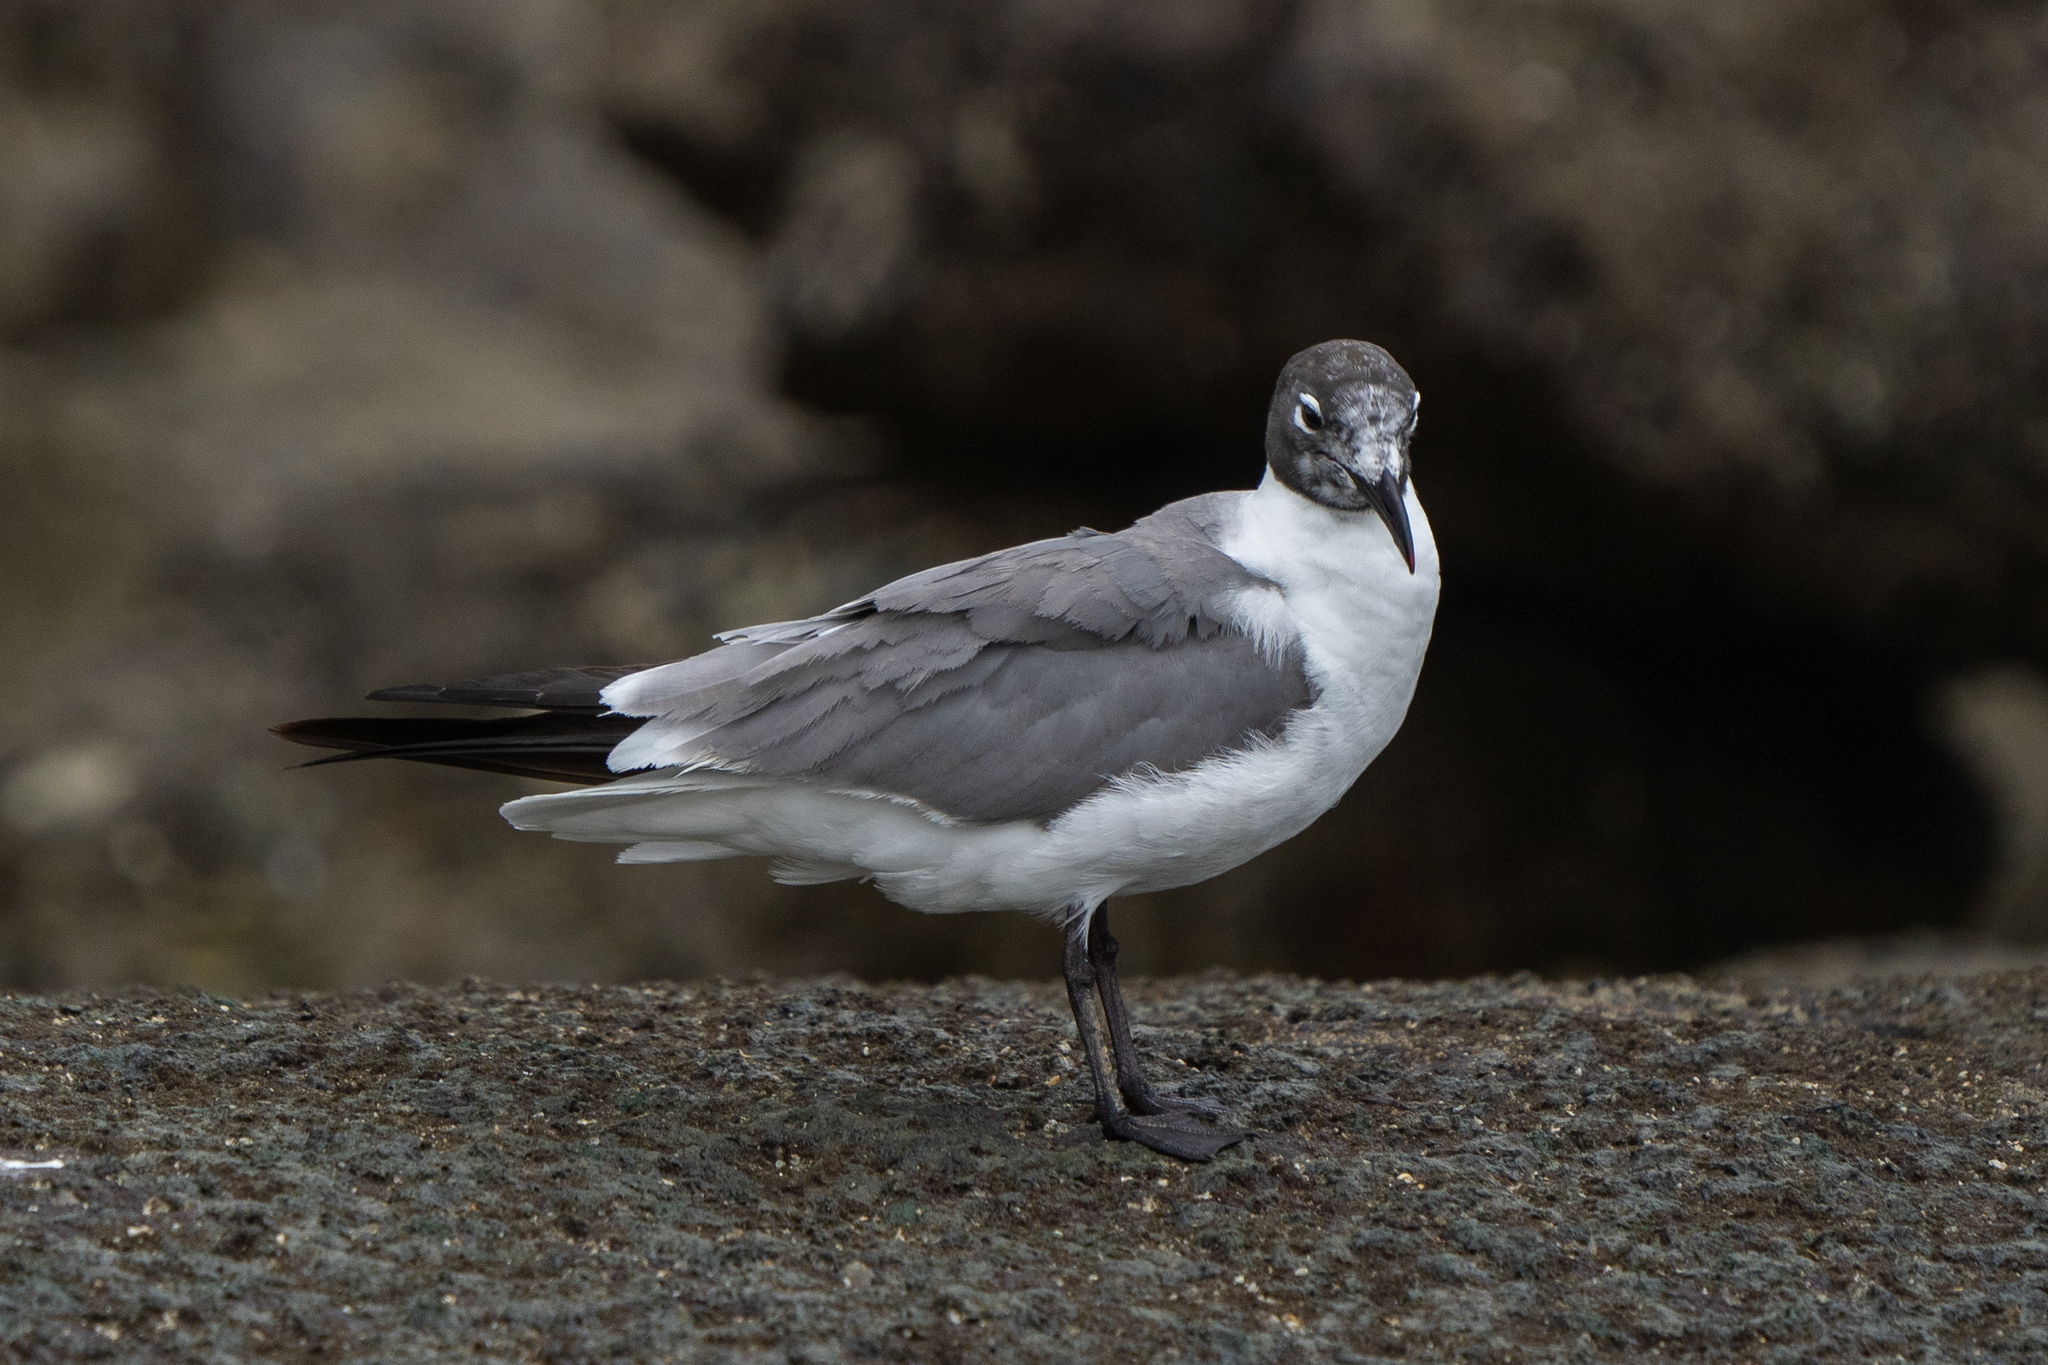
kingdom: Animalia
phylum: Chordata
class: Aves
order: Charadriiformes
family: Laridae
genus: Leucophaeus
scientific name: Leucophaeus atricilla
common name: Laughing gull
